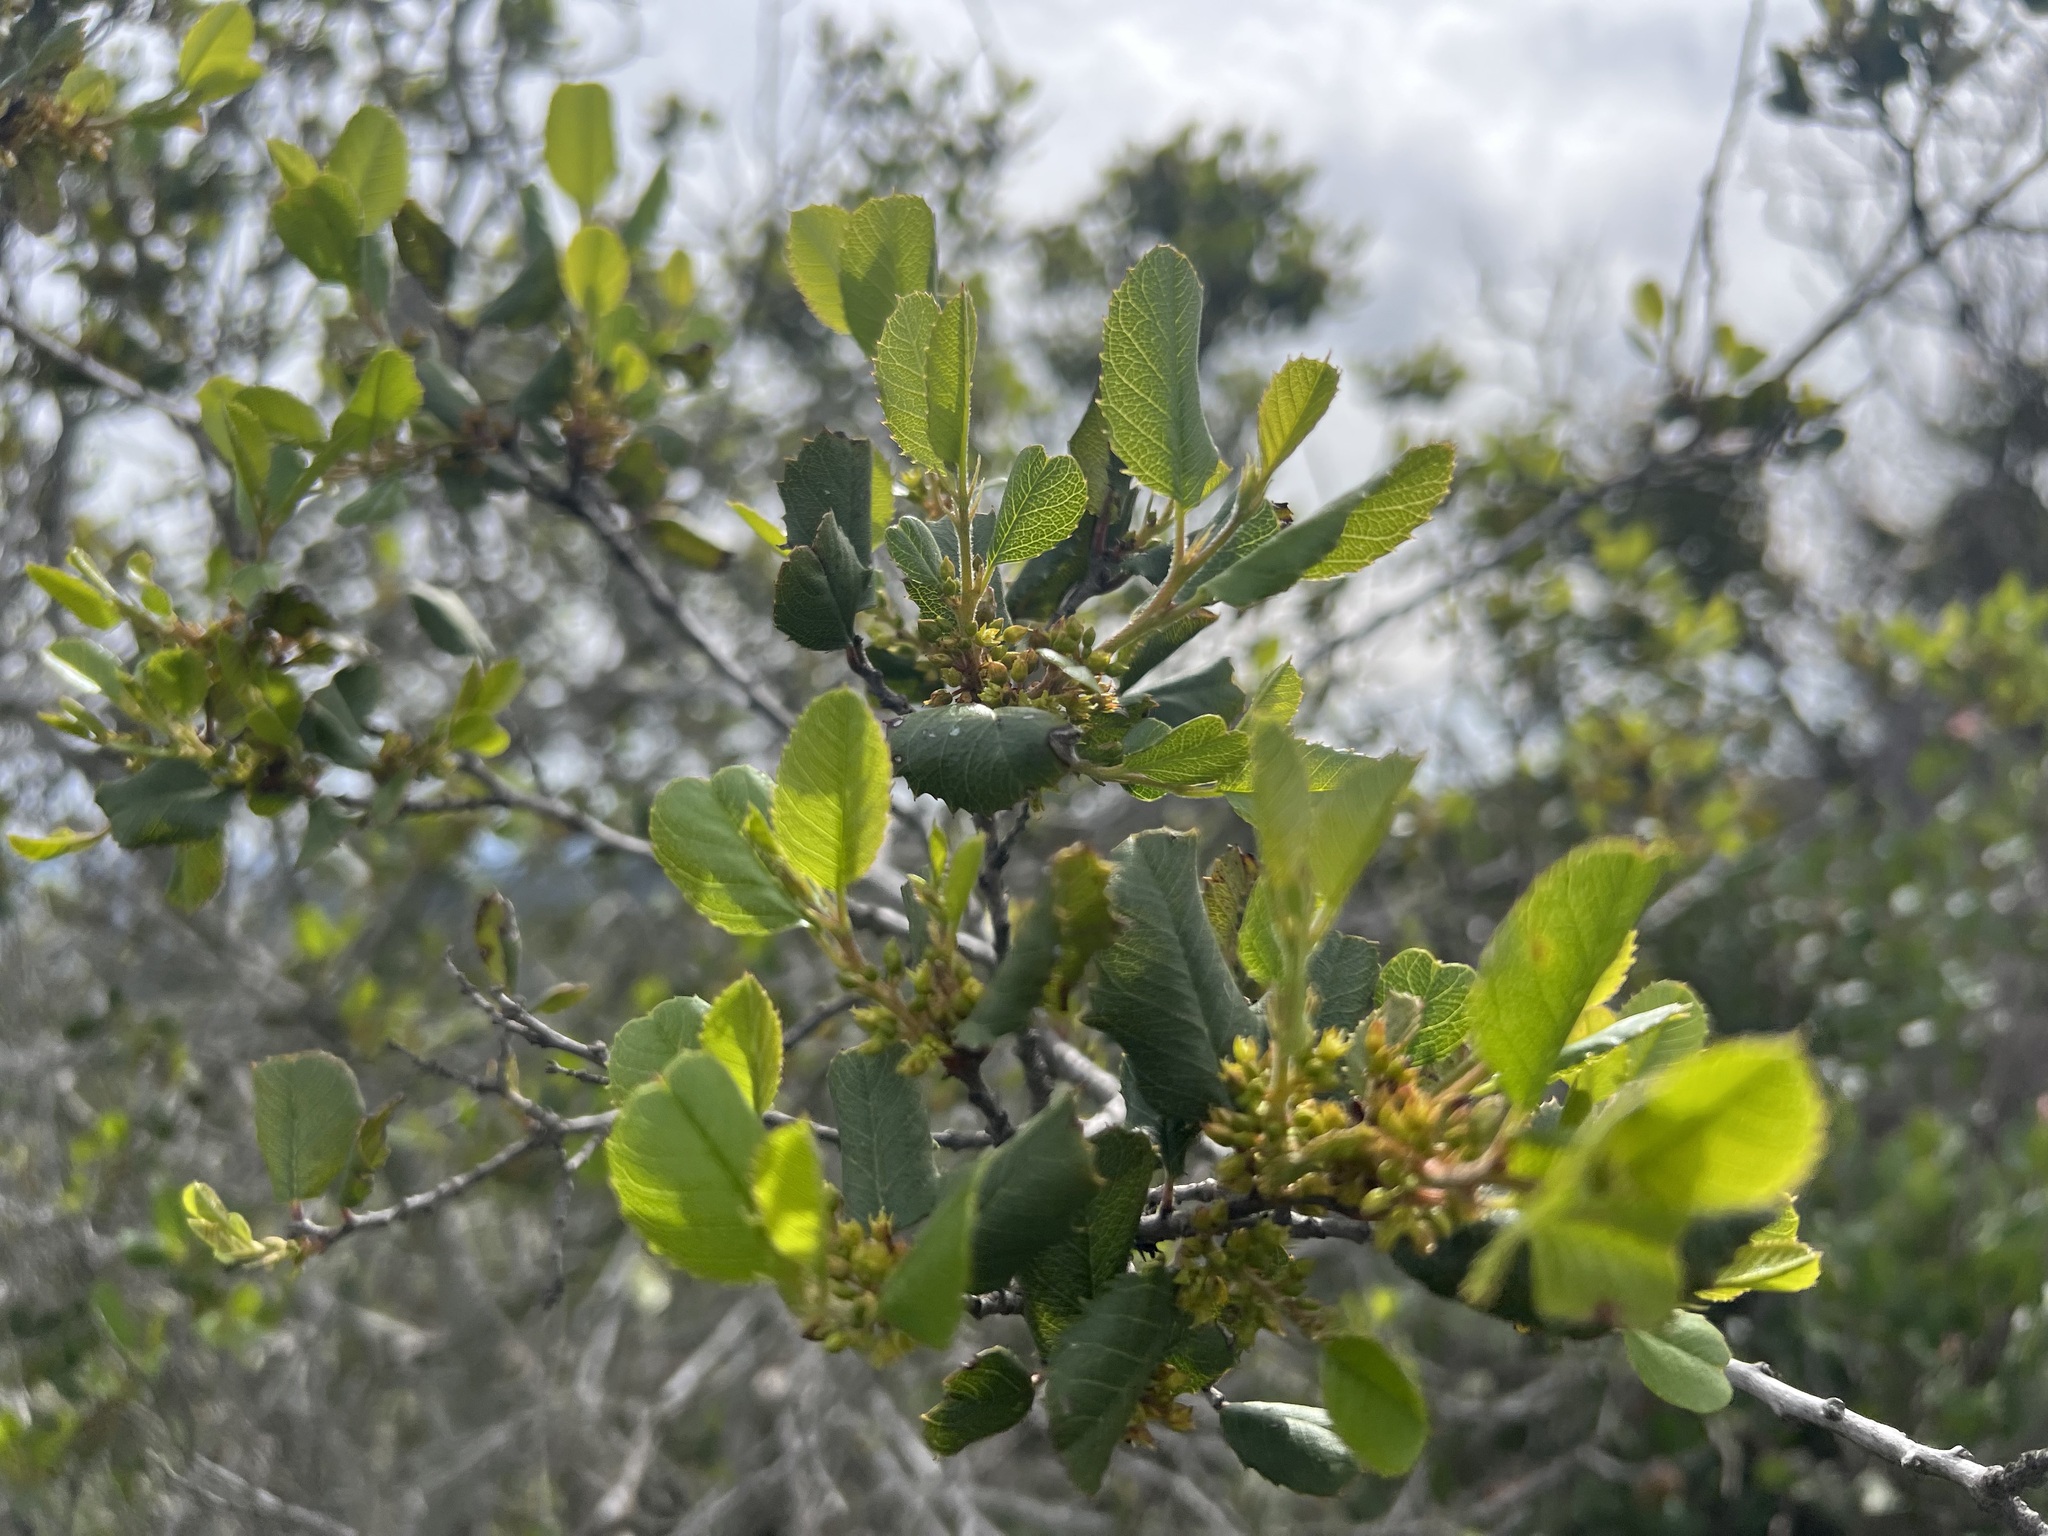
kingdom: Plantae
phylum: Tracheophyta
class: Magnoliopsida
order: Rosales
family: Rhamnaceae
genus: Endotropis
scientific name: Endotropis crocea
